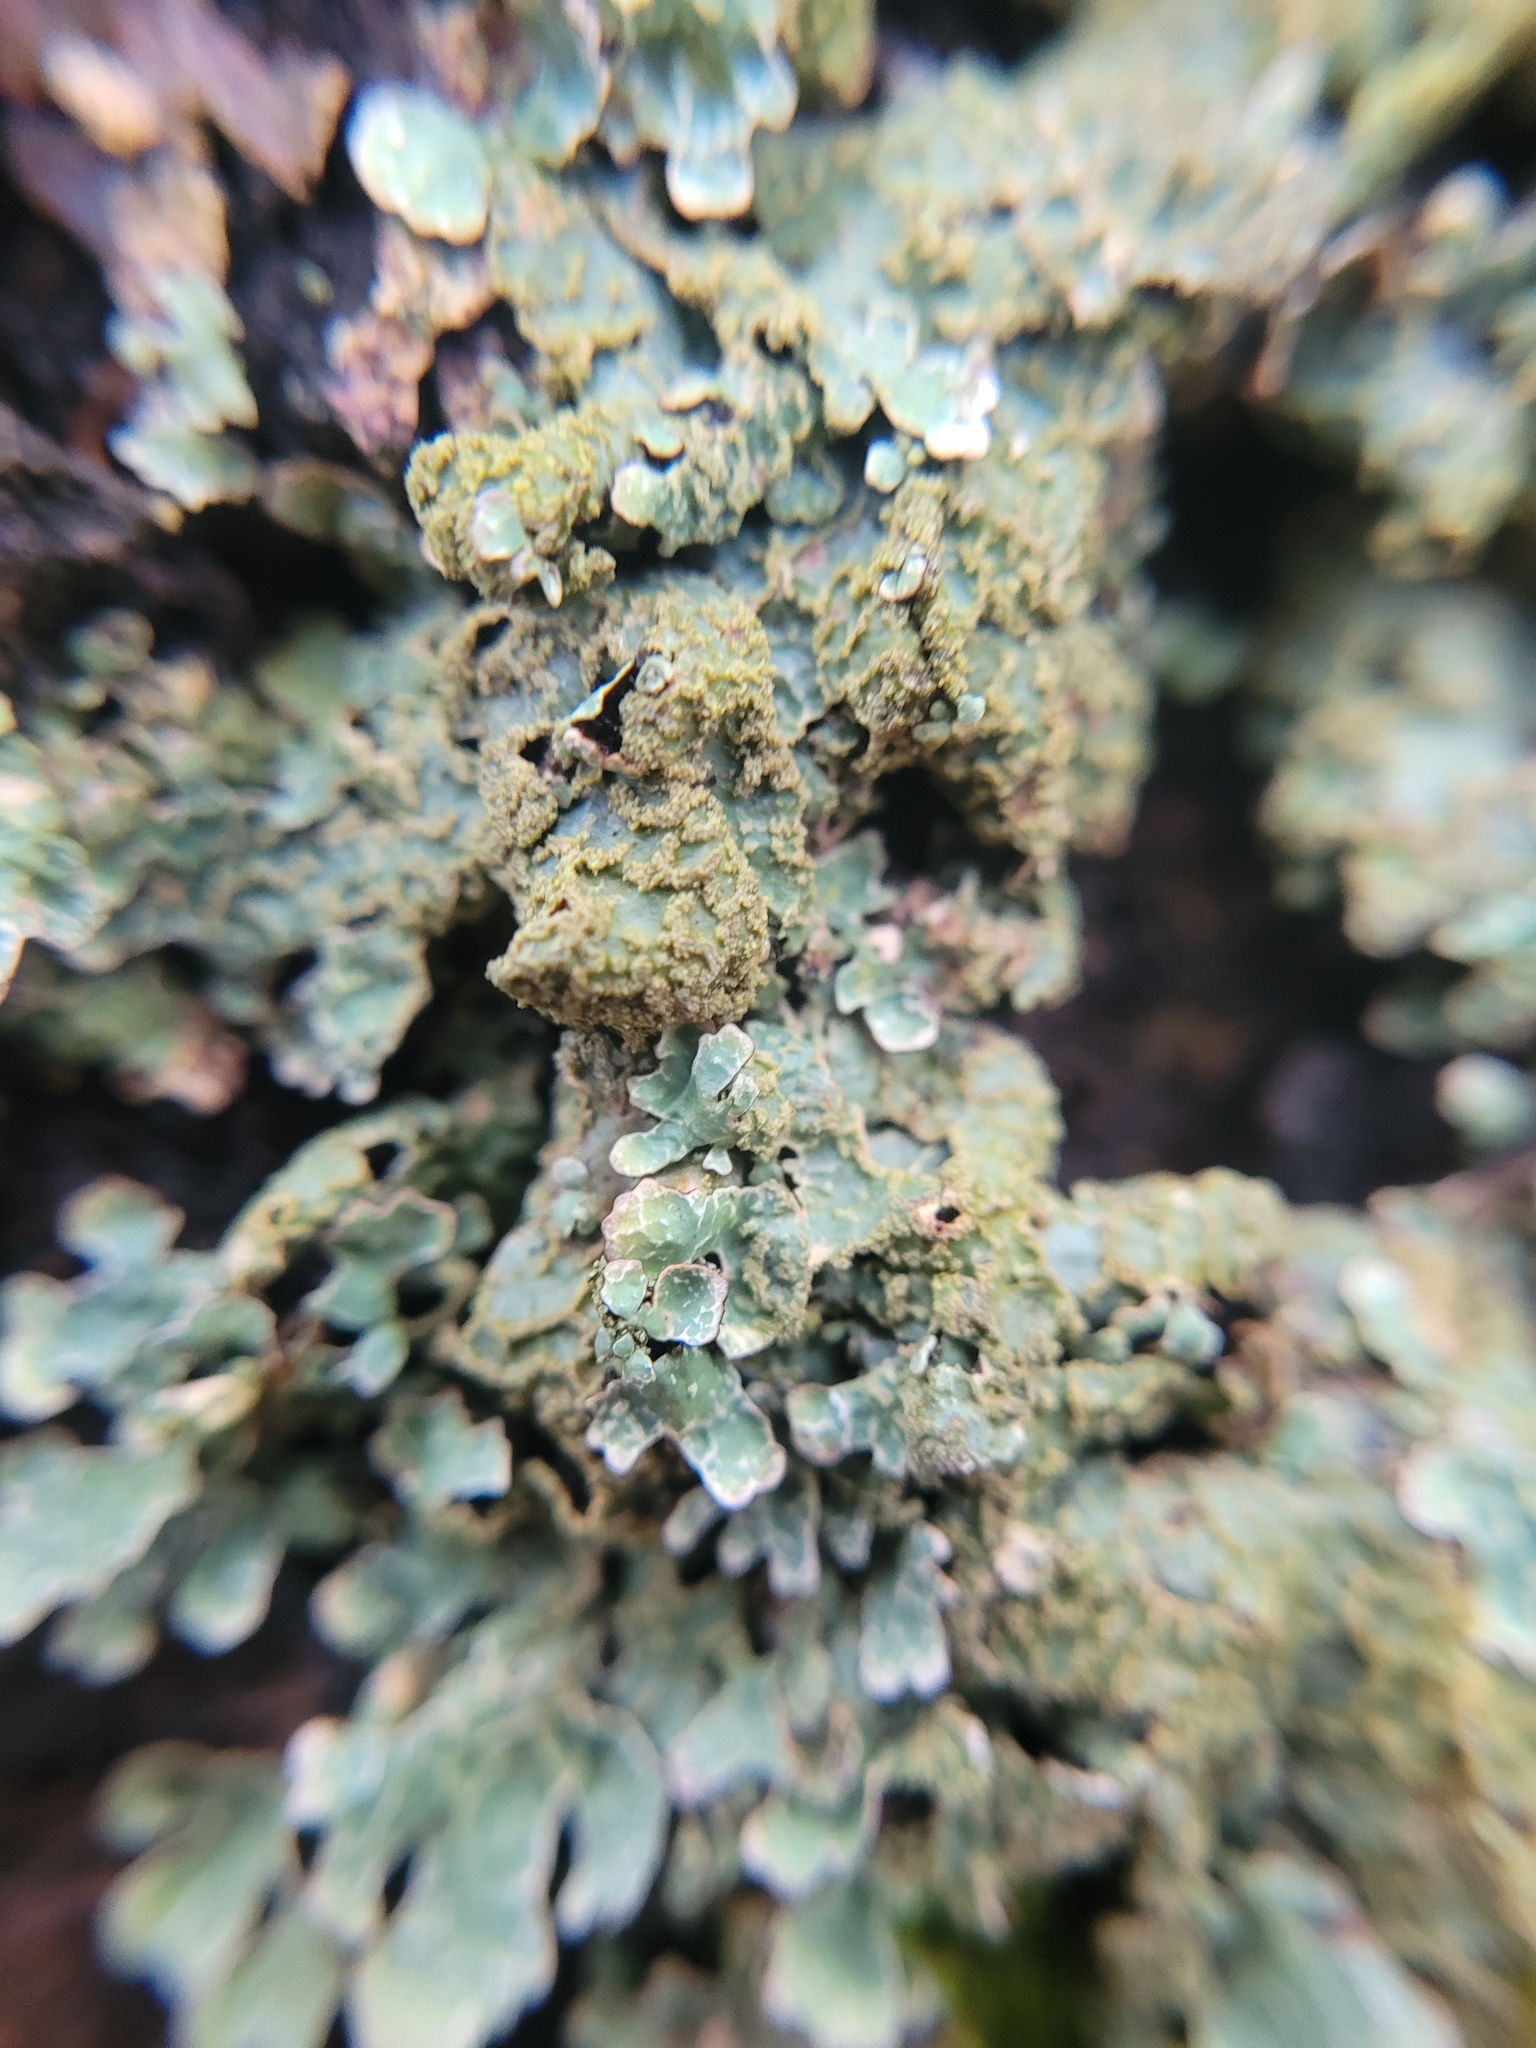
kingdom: Fungi
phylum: Ascomycota
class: Lecanoromycetes
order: Lecanorales
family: Parmeliaceae
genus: Parmelia
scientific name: Parmelia sulcata
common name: Netted shield lichen
